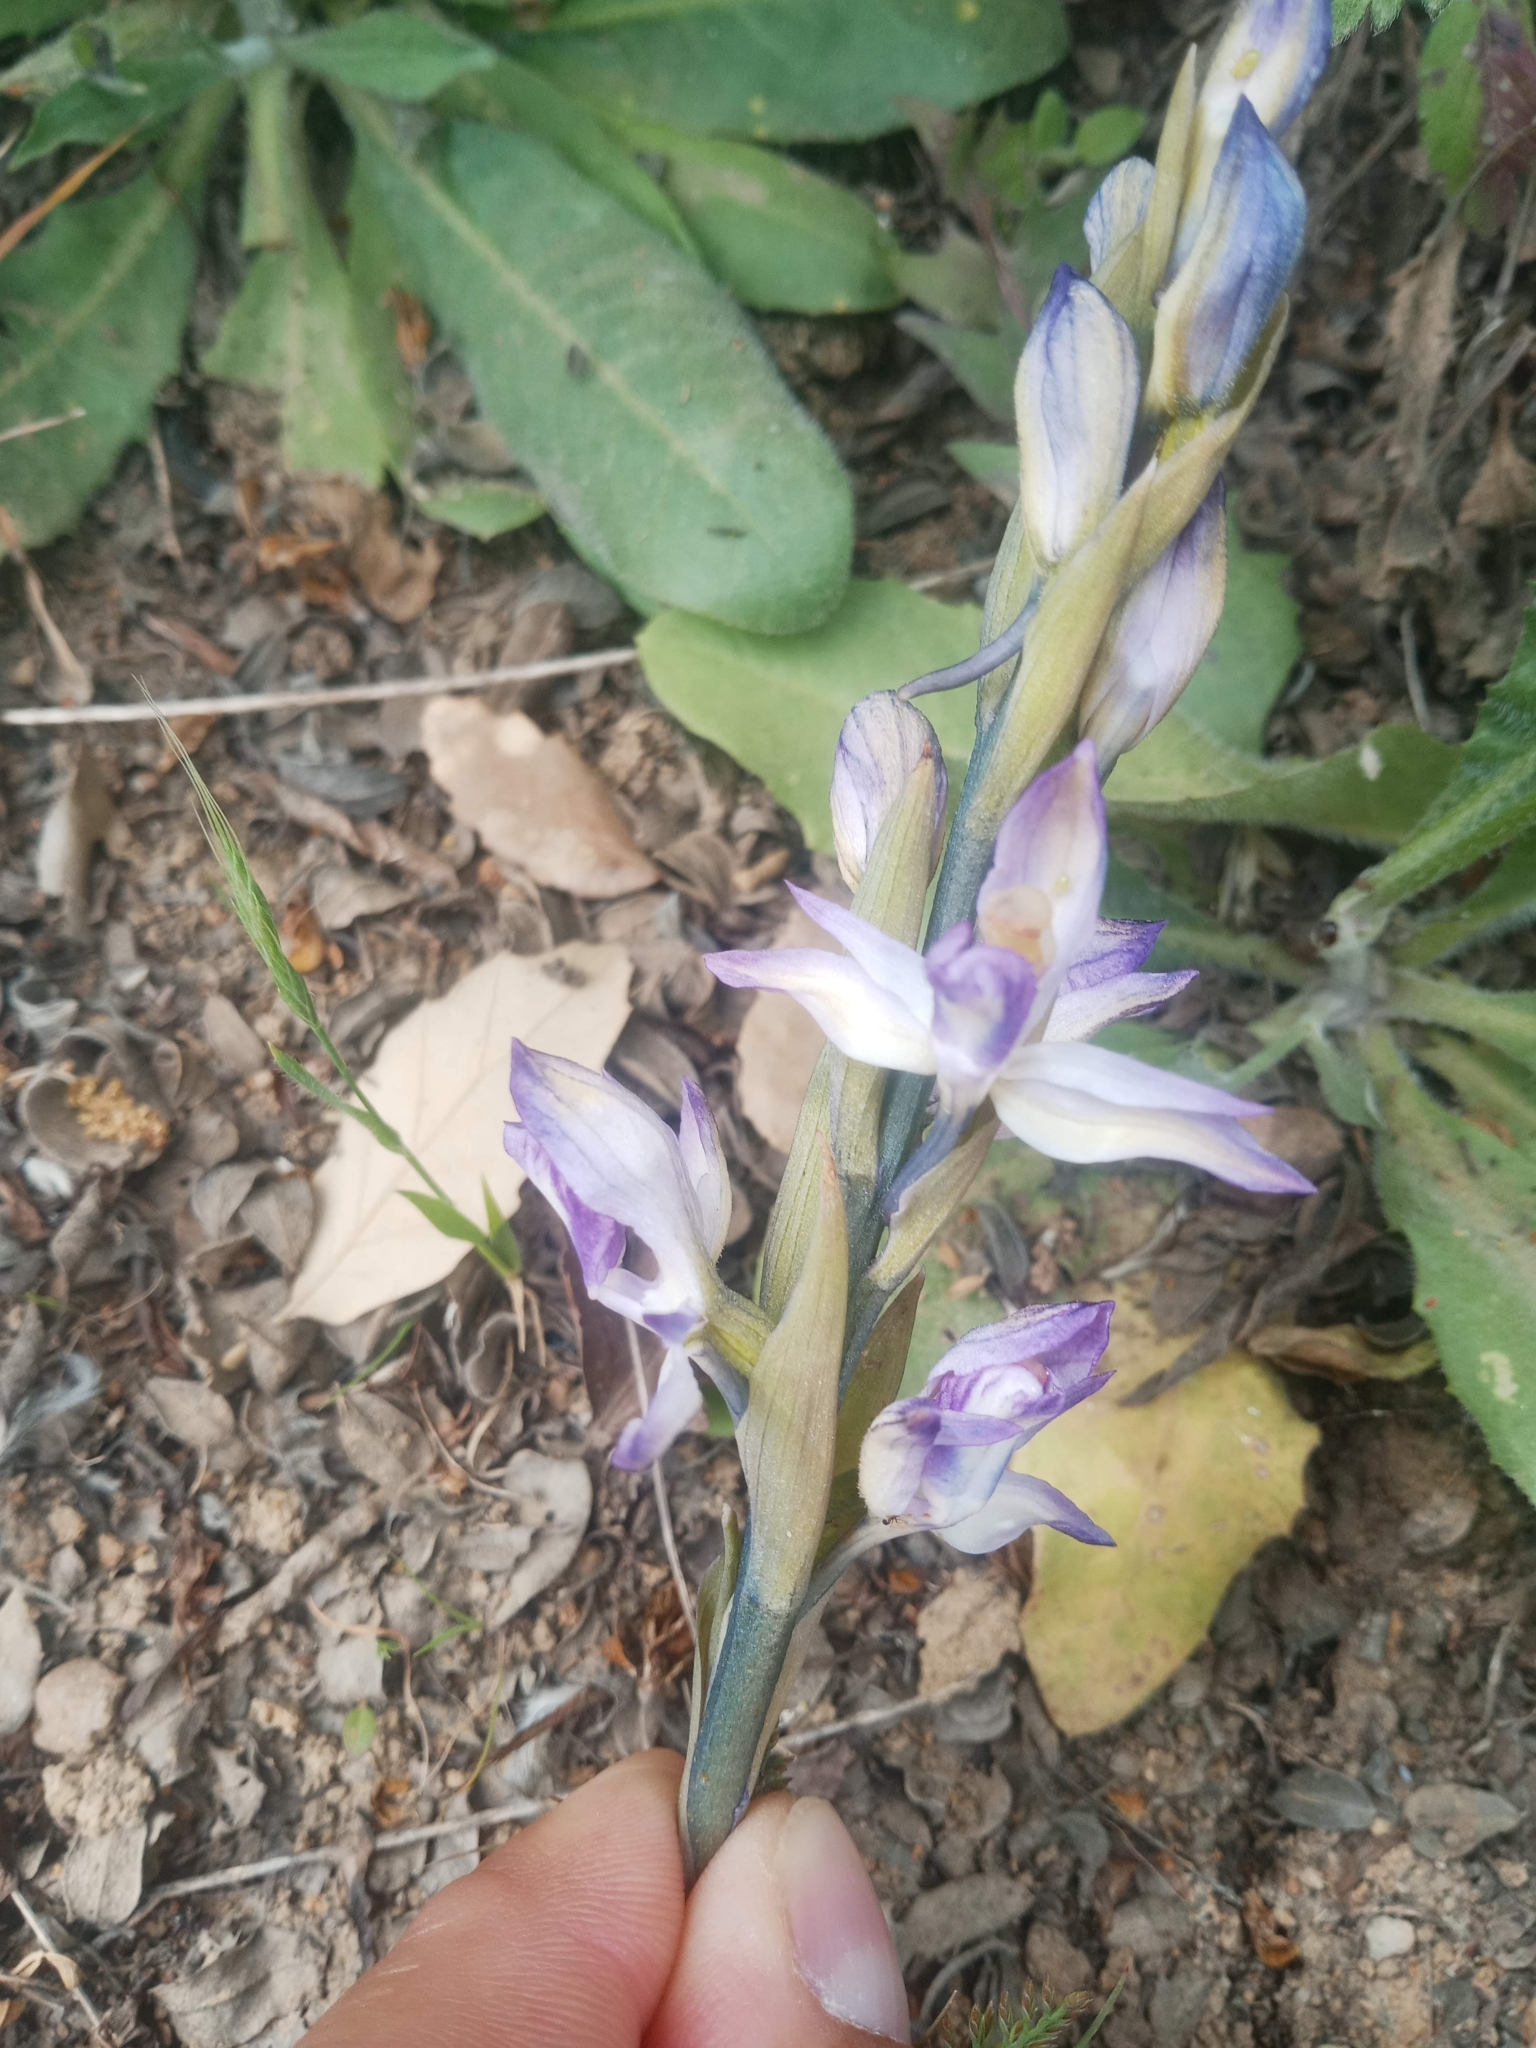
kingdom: Plantae
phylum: Tracheophyta
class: Liliopsida
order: Asparagales
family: Orchidaceae
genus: Limodorum
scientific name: Limodorum abortivum
